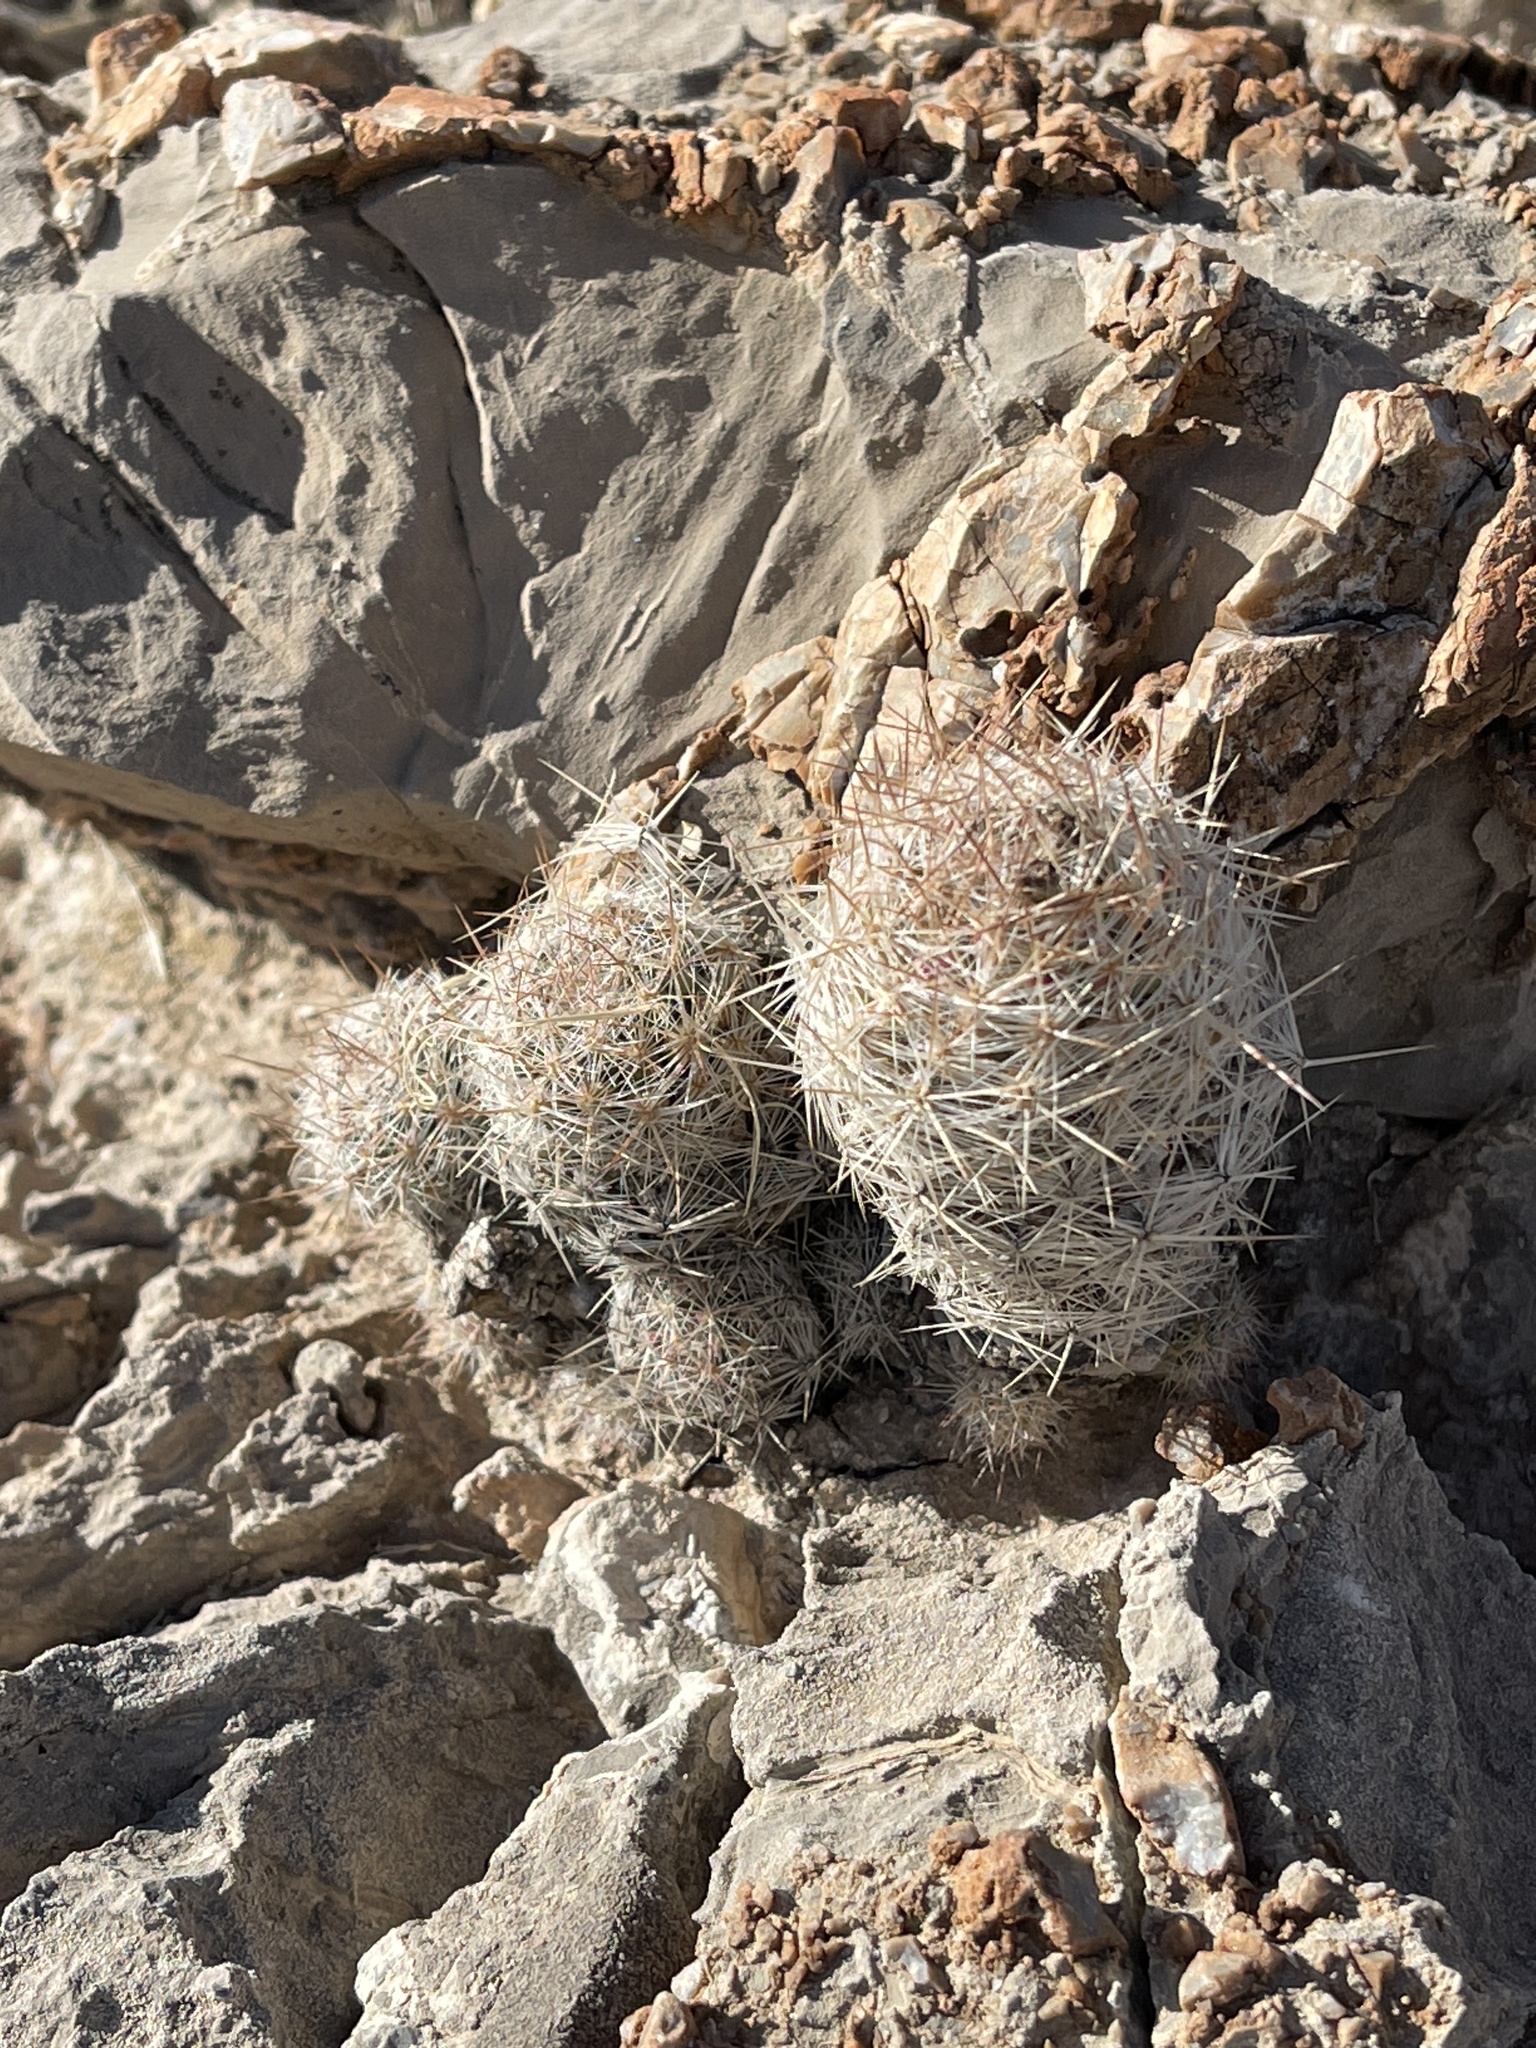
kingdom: Plantae
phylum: Tracheophyta
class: Magnoliopsida
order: Caryophyllales
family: Cactaceae
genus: Pelecyphora
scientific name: Pelecyphora tuberculosa
